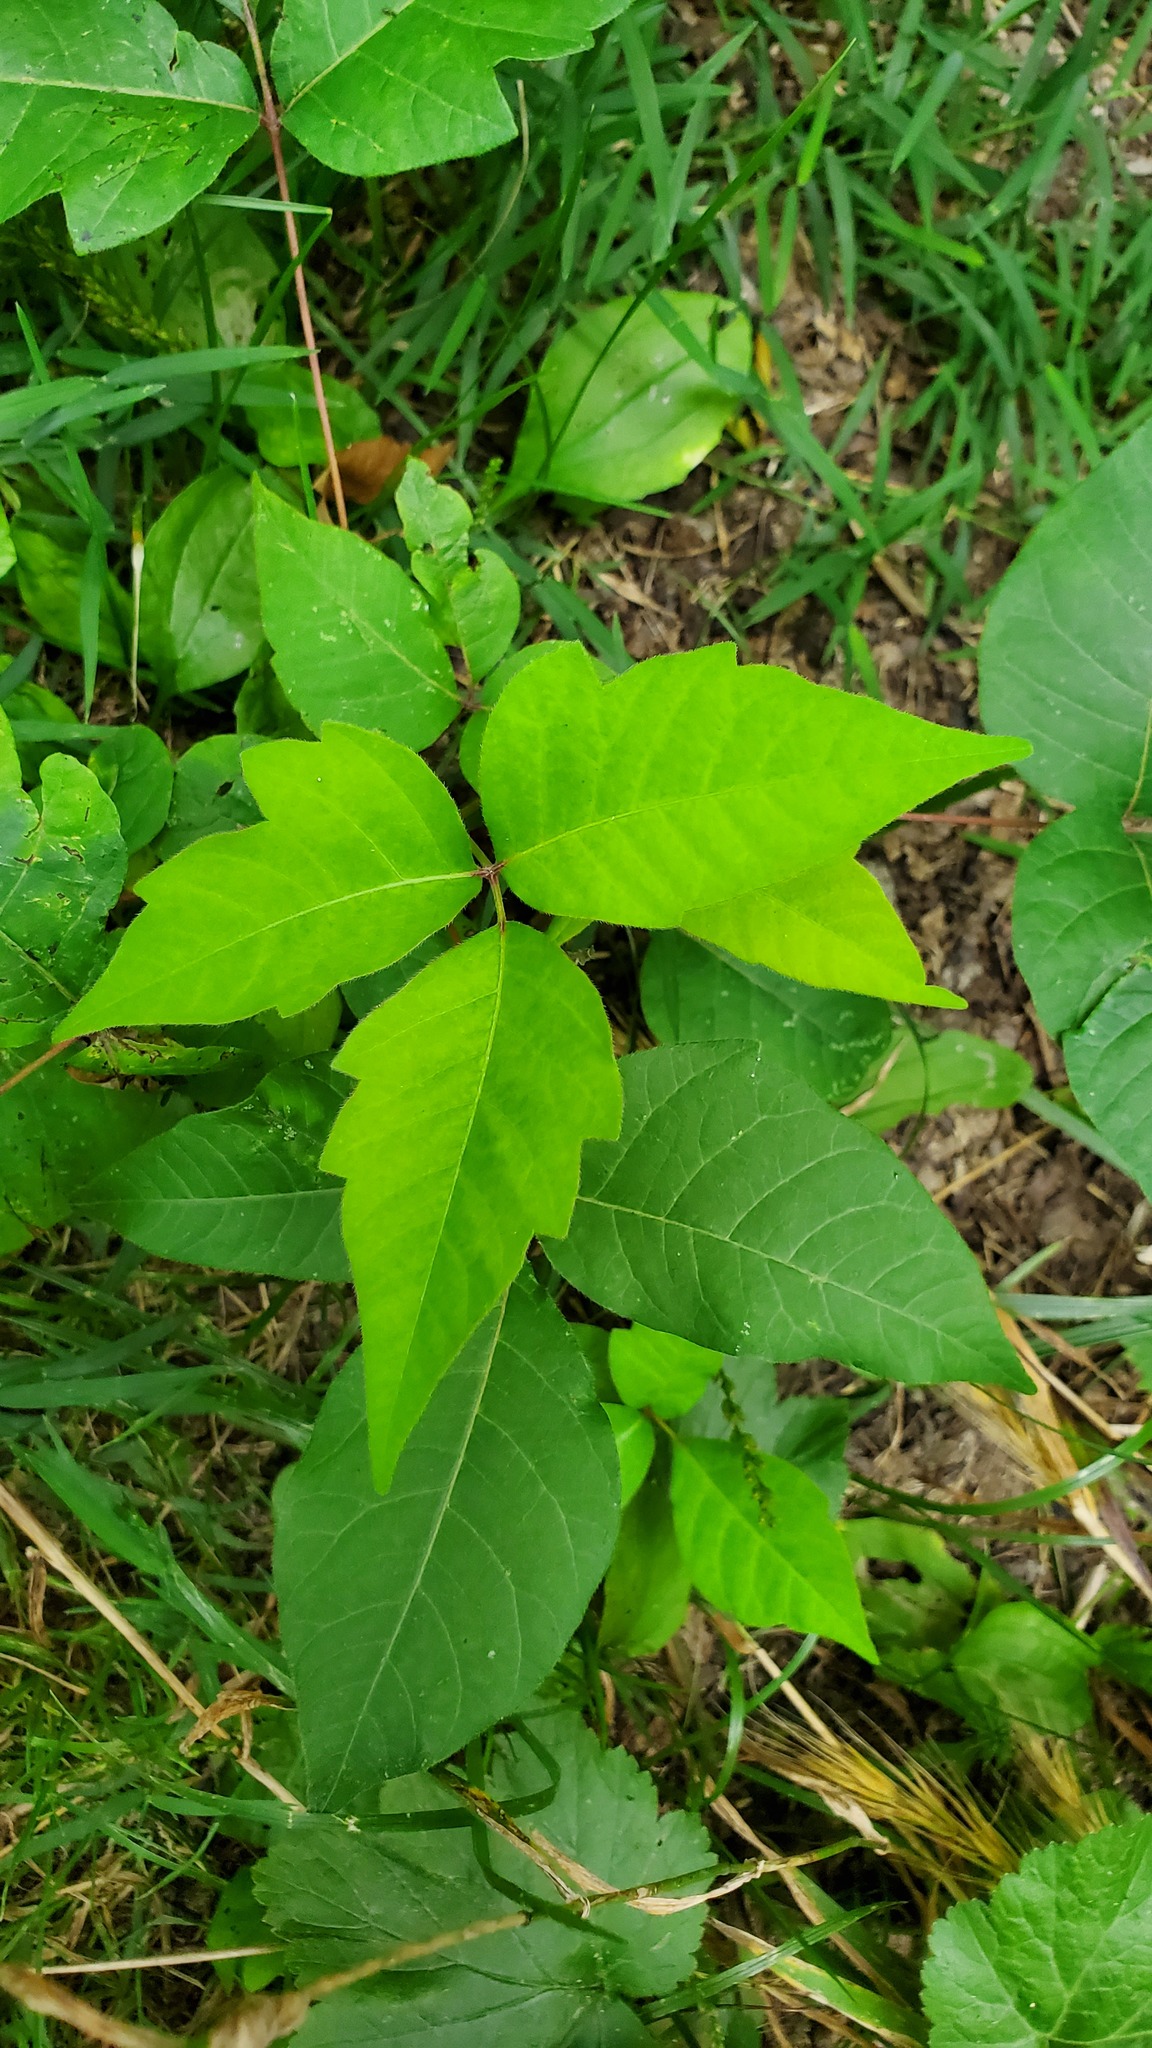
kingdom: Plantae
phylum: Tracheophyta
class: Magnoliopsida
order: Sapindales
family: Anacardiaceae
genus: Toxicodendron
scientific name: Toxicodendron radicans
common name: Poison ivy
